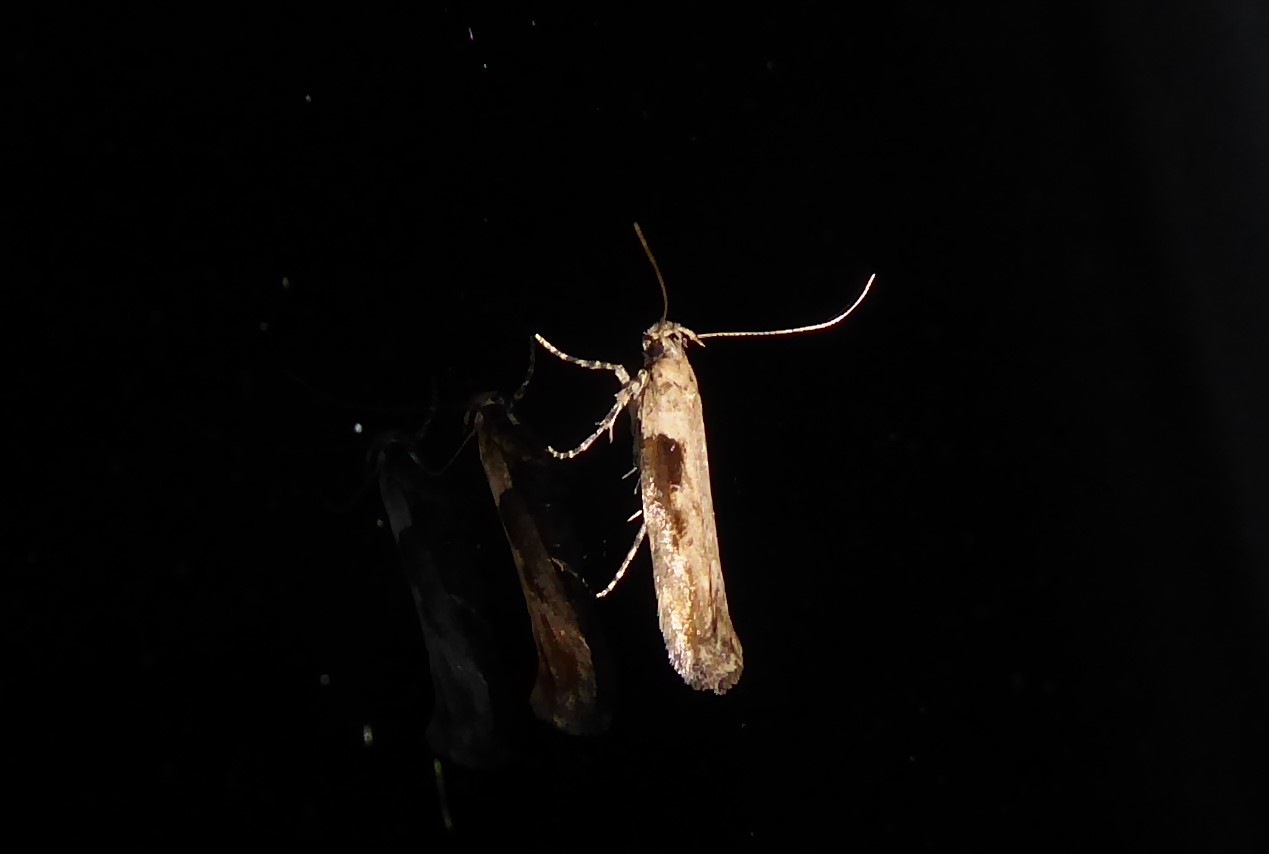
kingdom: Animalia
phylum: Arthropoda
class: Insecta
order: Lepidoptera
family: Gelechiidae
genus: Symmetrischema
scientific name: Symmetrischema tangolias
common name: Moth
